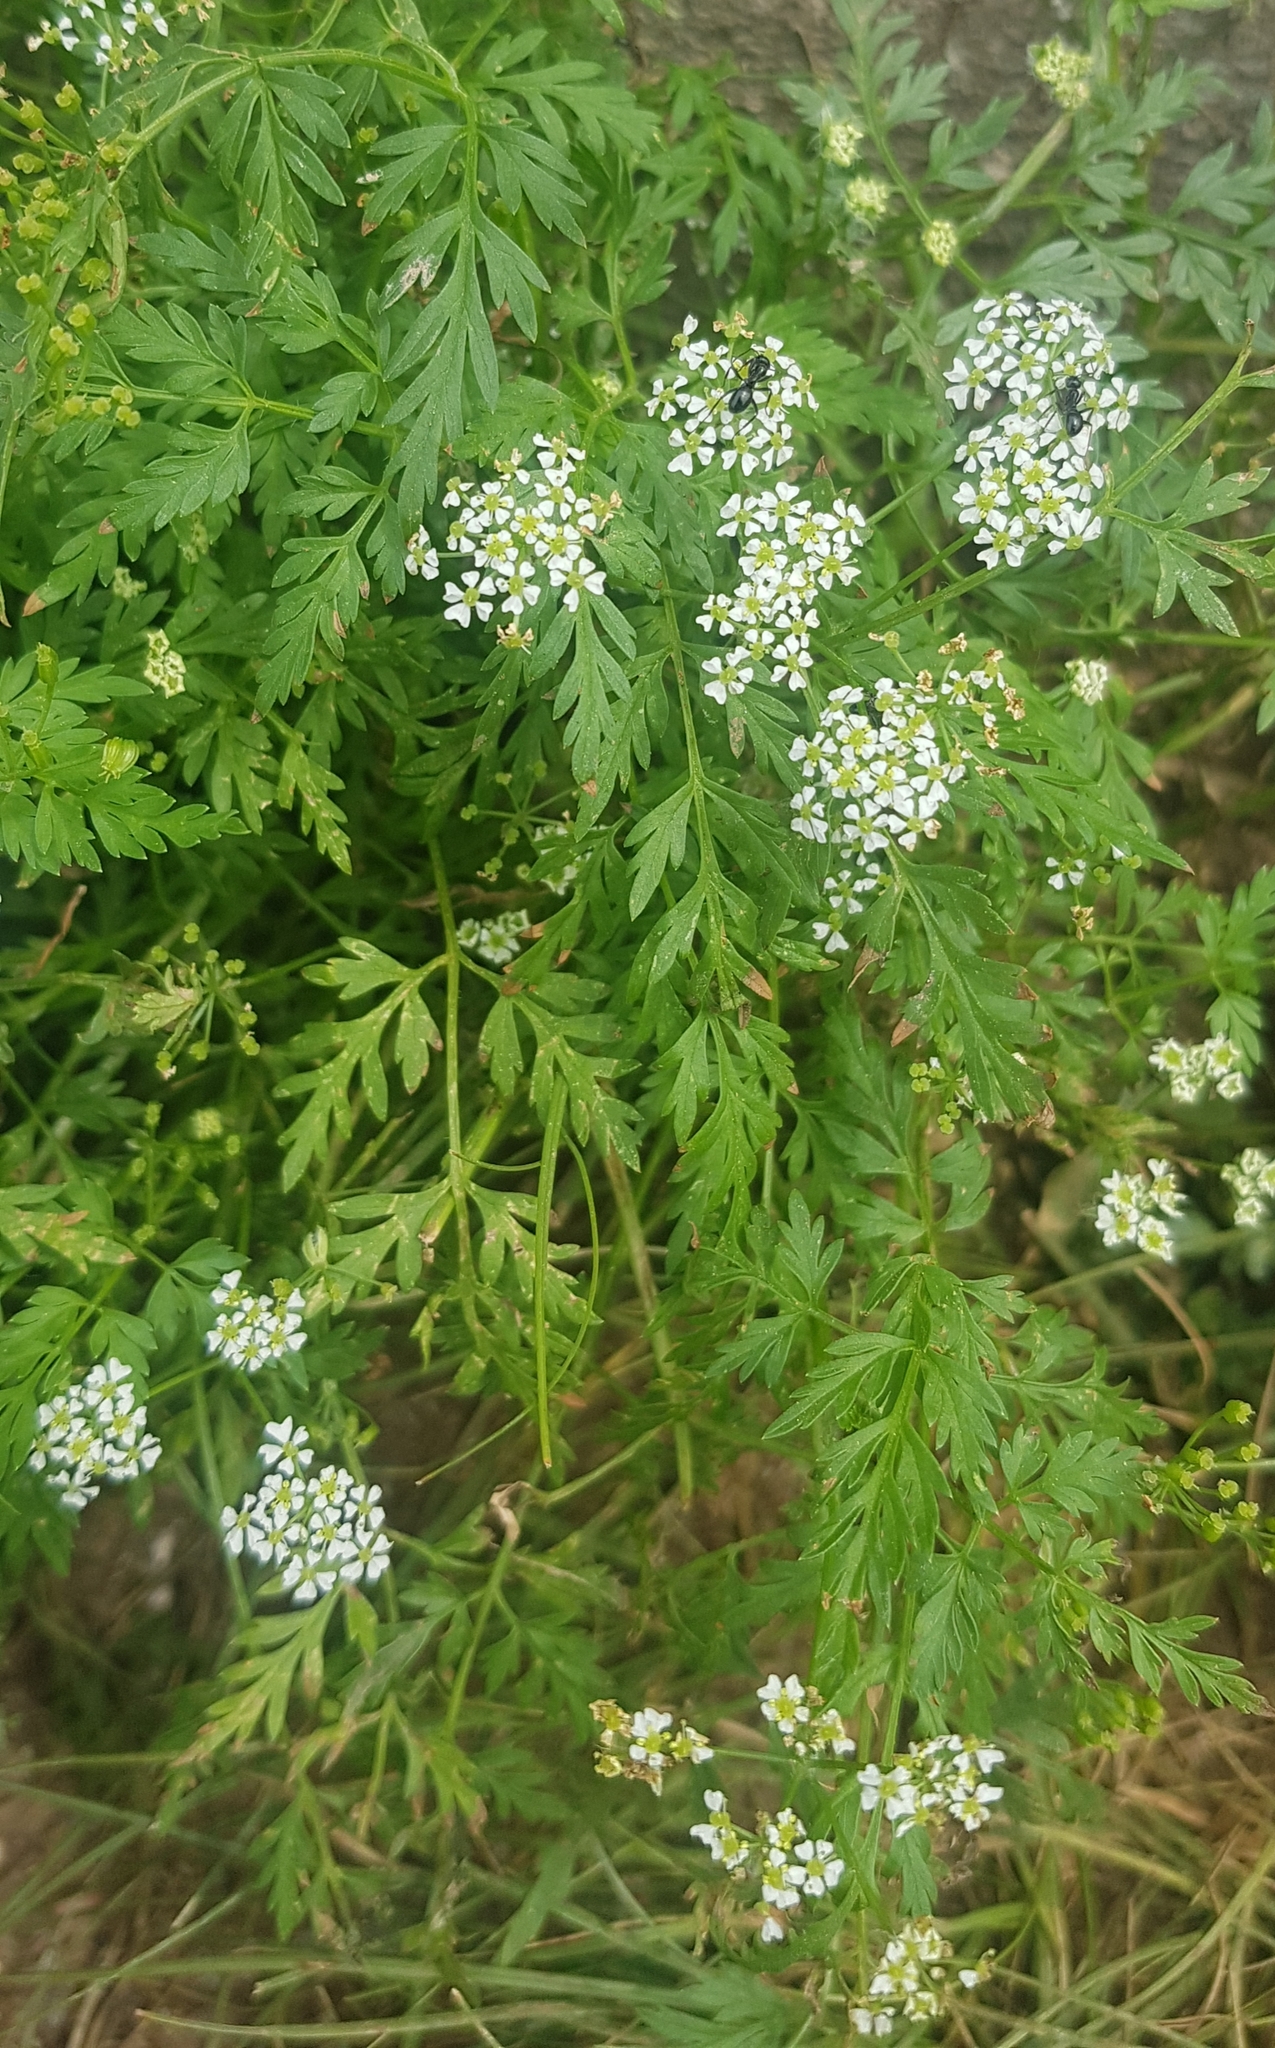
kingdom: Plantae
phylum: Tracheophyta
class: Magnoliopsida
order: Apiales
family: Apiaceae
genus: Sphallerocarpus
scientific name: Sphallerocarpus gracilis
